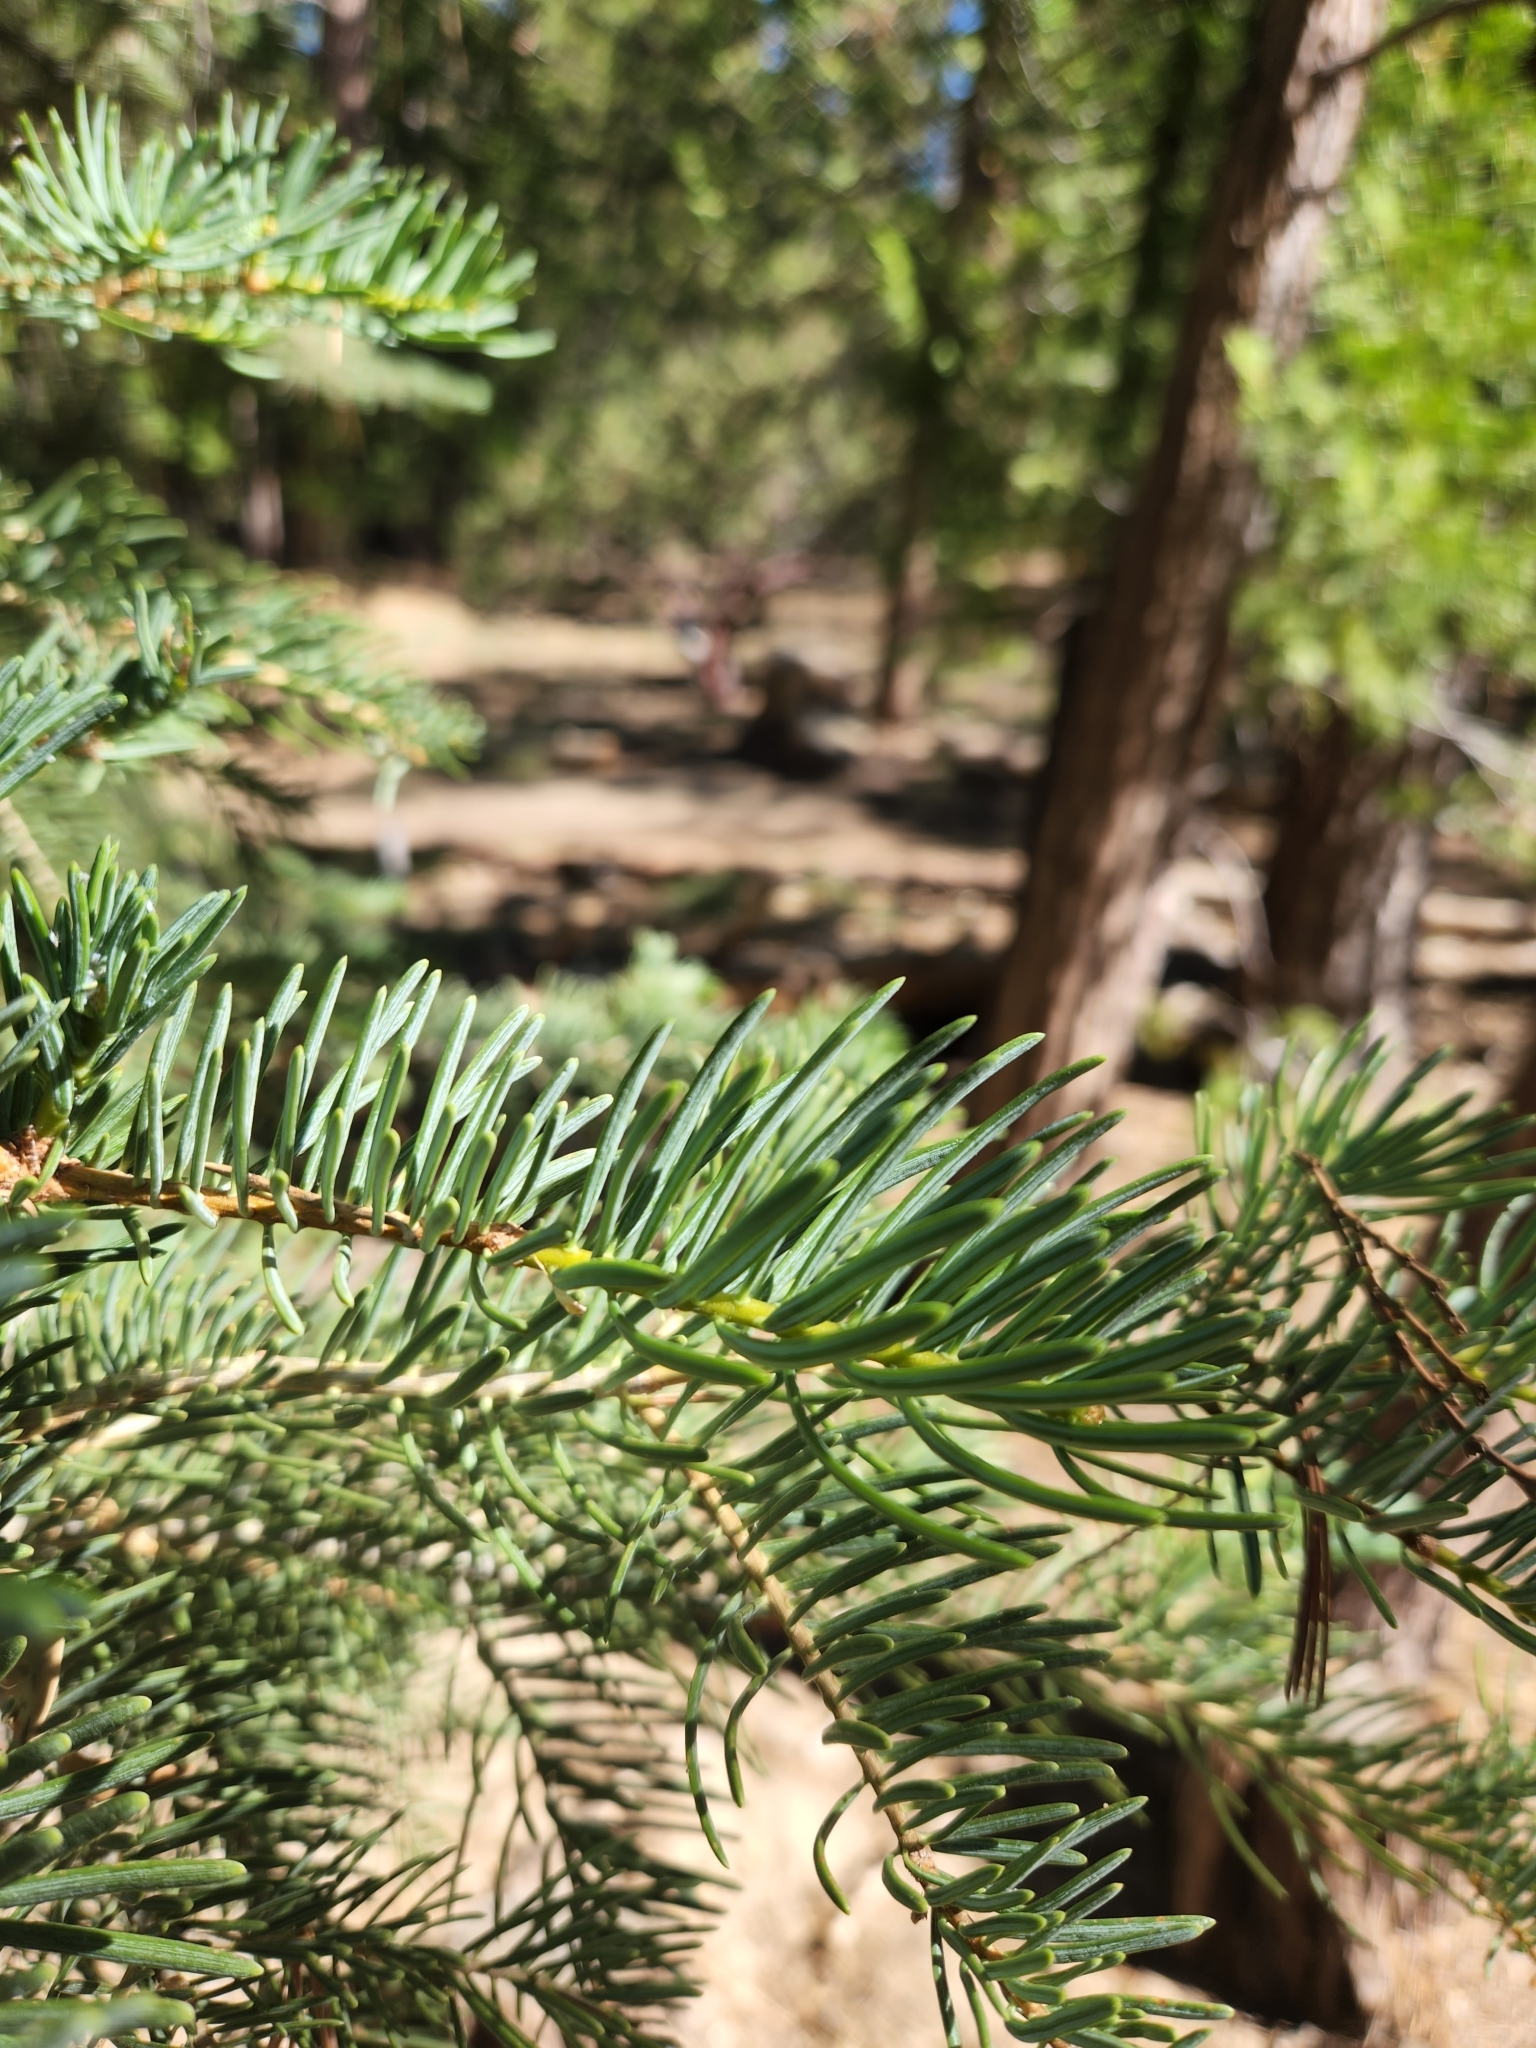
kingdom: Plantae
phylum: Tracheophyta
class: Pinopsida
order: Pinales
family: Pinaceae
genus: Abies
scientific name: Abies concolor
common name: Colorado fir
